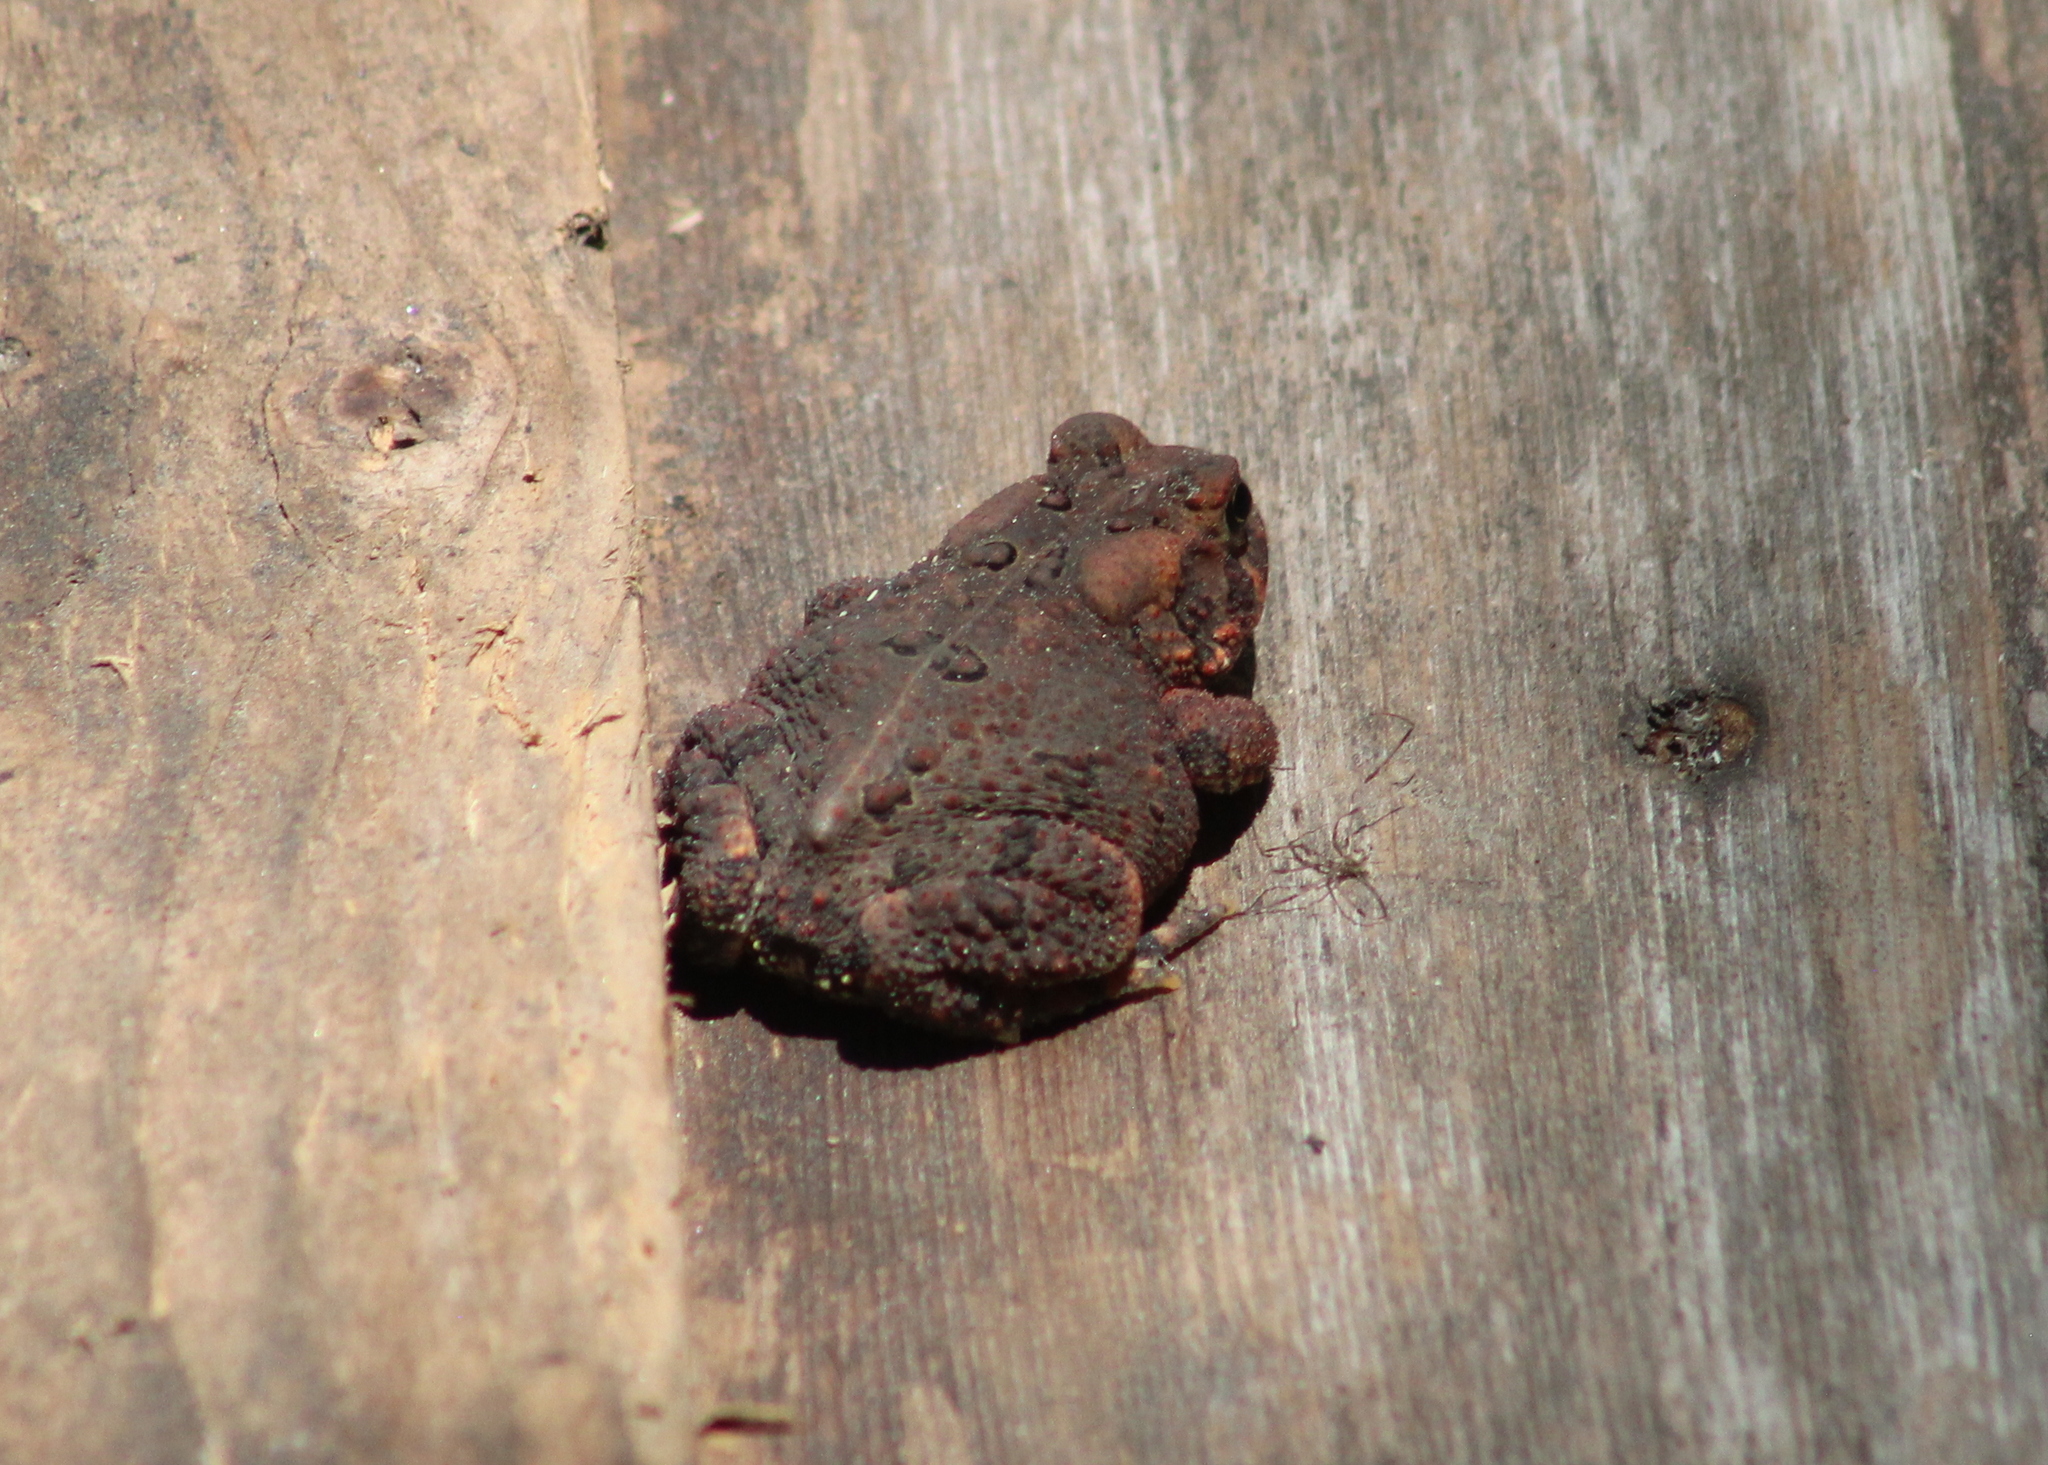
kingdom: Animalia
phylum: Chordata
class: Amphibia
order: Anura
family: Bufonidae
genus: Anaxyrus
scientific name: Anaxyrus americanus
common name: American toad
